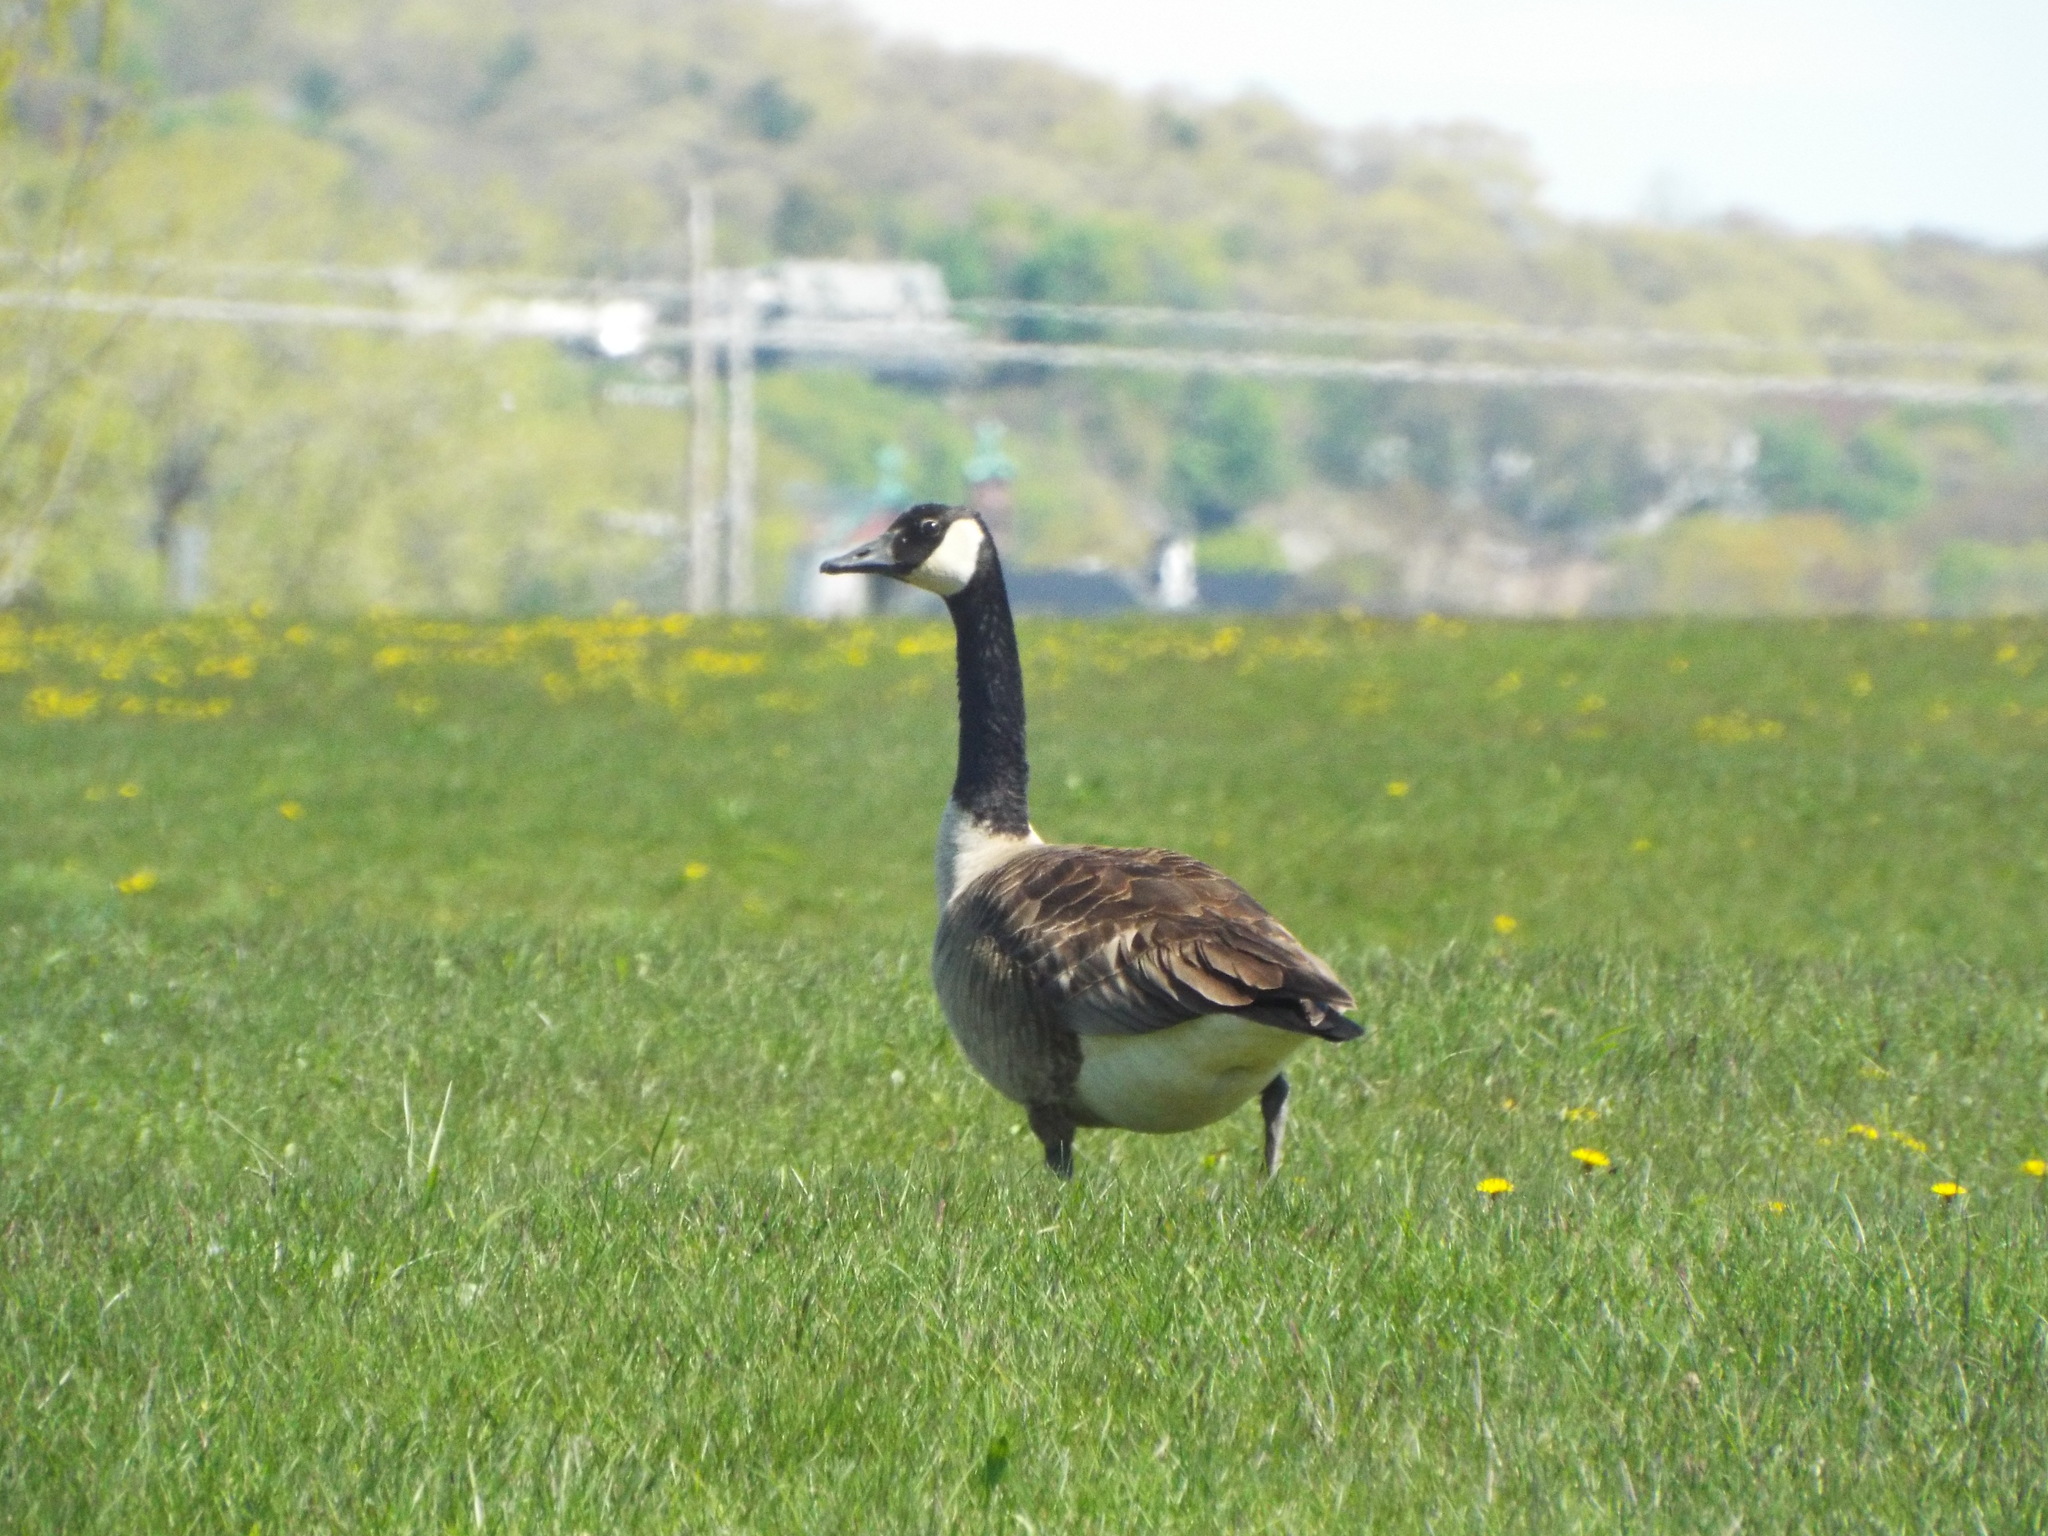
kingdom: Animalia
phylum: Chordata
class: Aves
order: Anseriformes
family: Anatidae
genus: Branta
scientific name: Branta canadensis
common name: Canada goose
